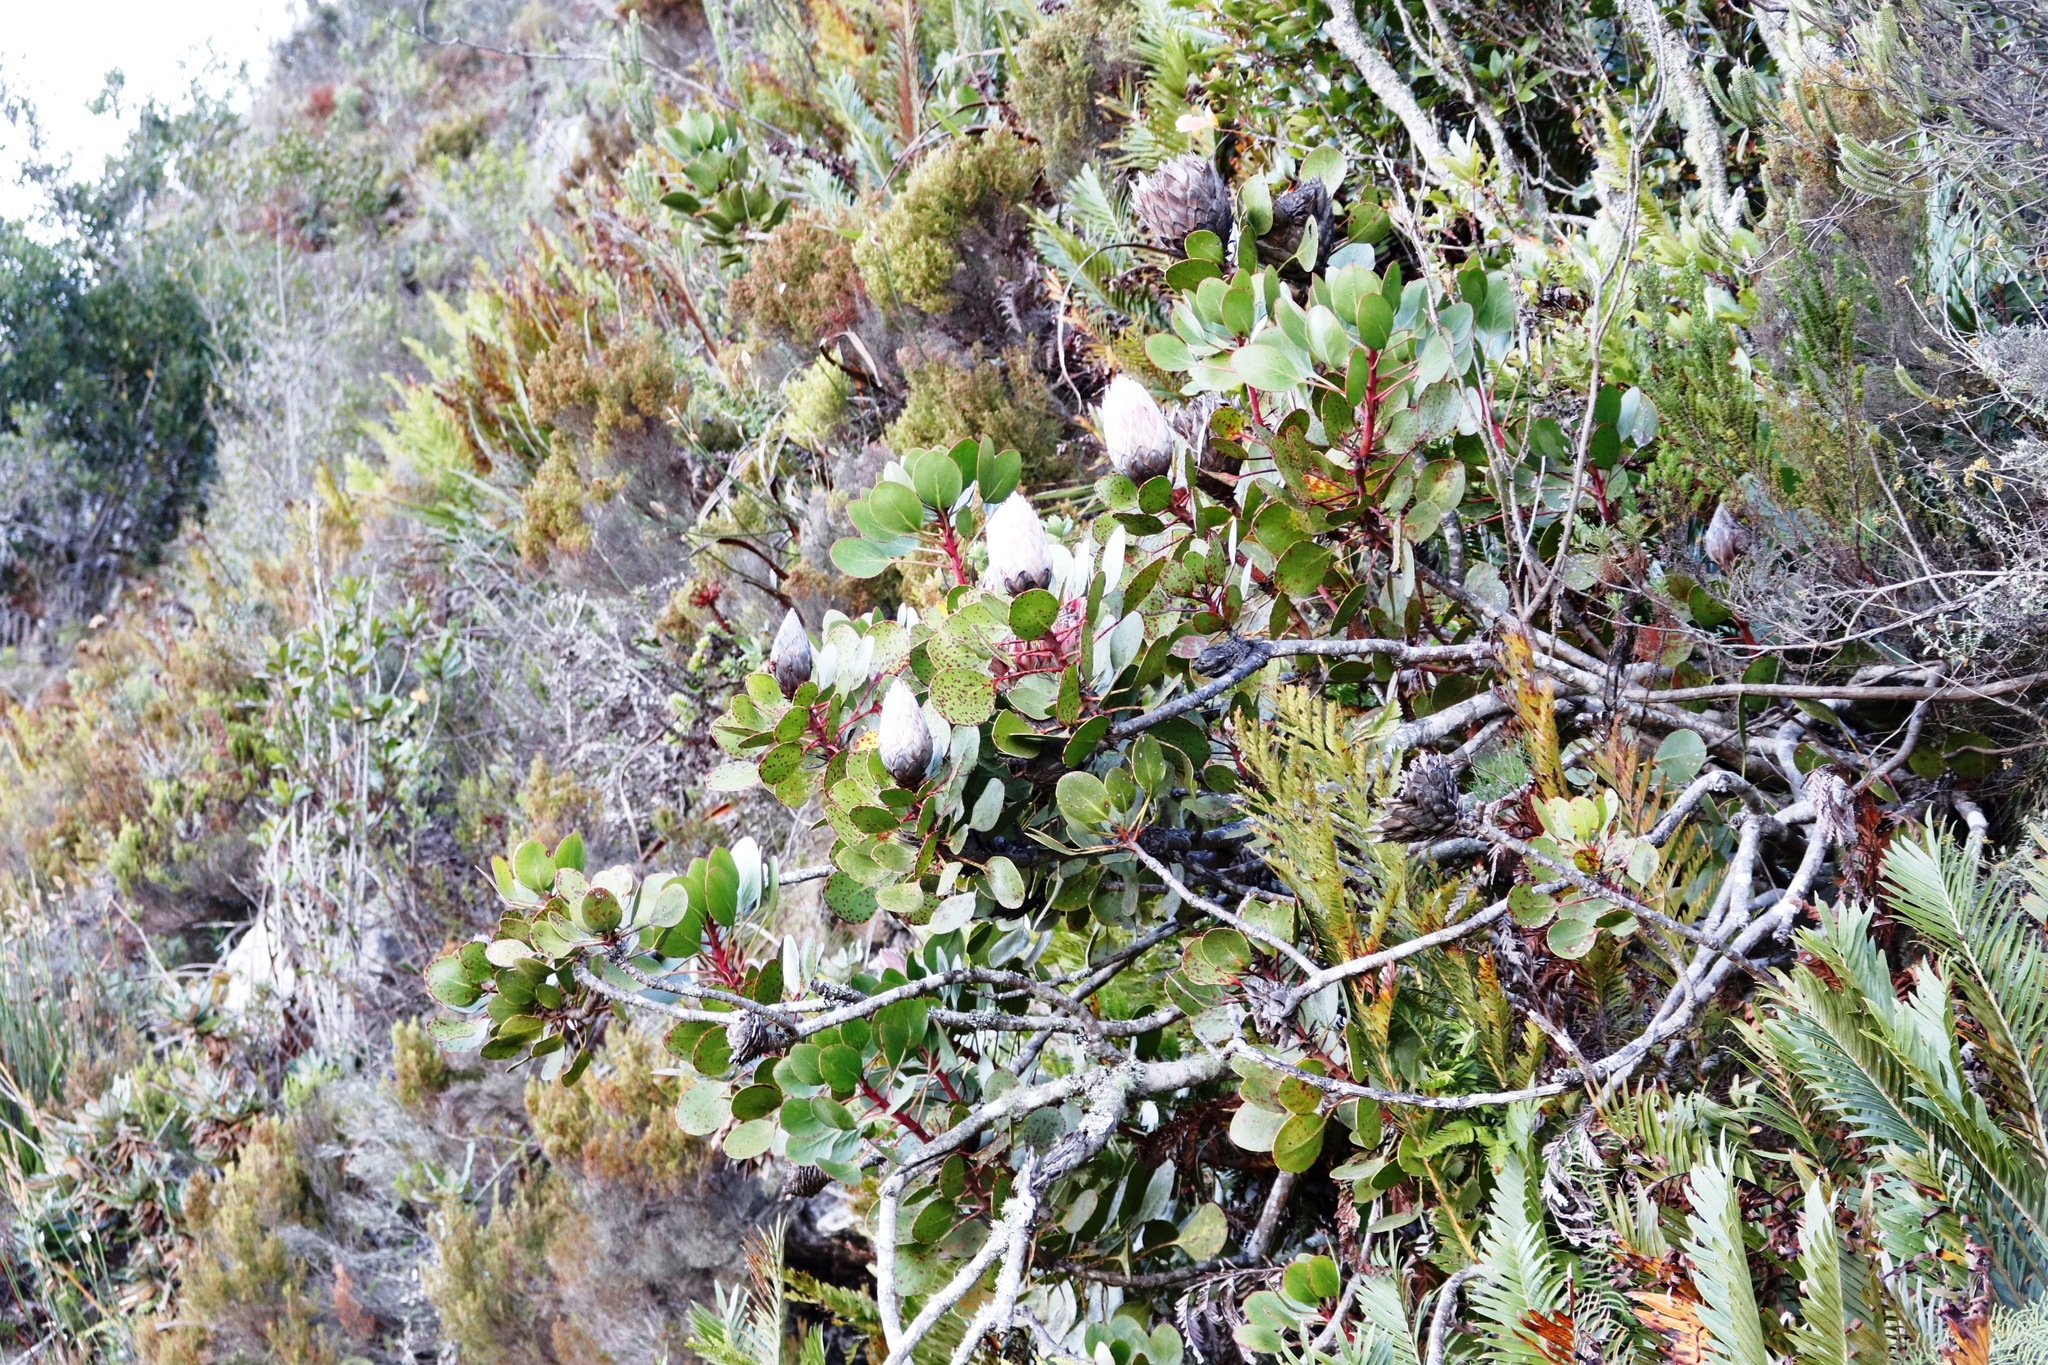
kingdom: Plantae
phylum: Tracheophyta
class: Magnoliopsida
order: Proteales
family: Proteaceae
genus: Protea
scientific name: Protea cynaroides
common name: King protea
